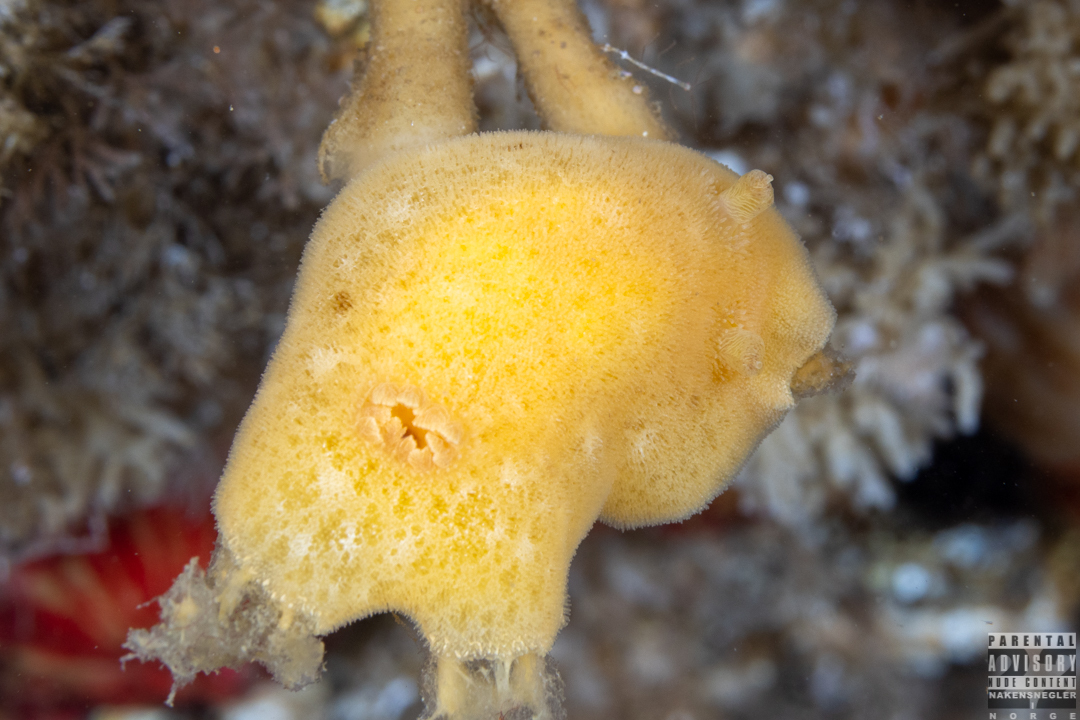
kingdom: Animalia
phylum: Mollusca
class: Gastropoda
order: Nudibranchia
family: Discodorididae
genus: Jorunna
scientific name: Jorunna tomentosa
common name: Grey sea slug
